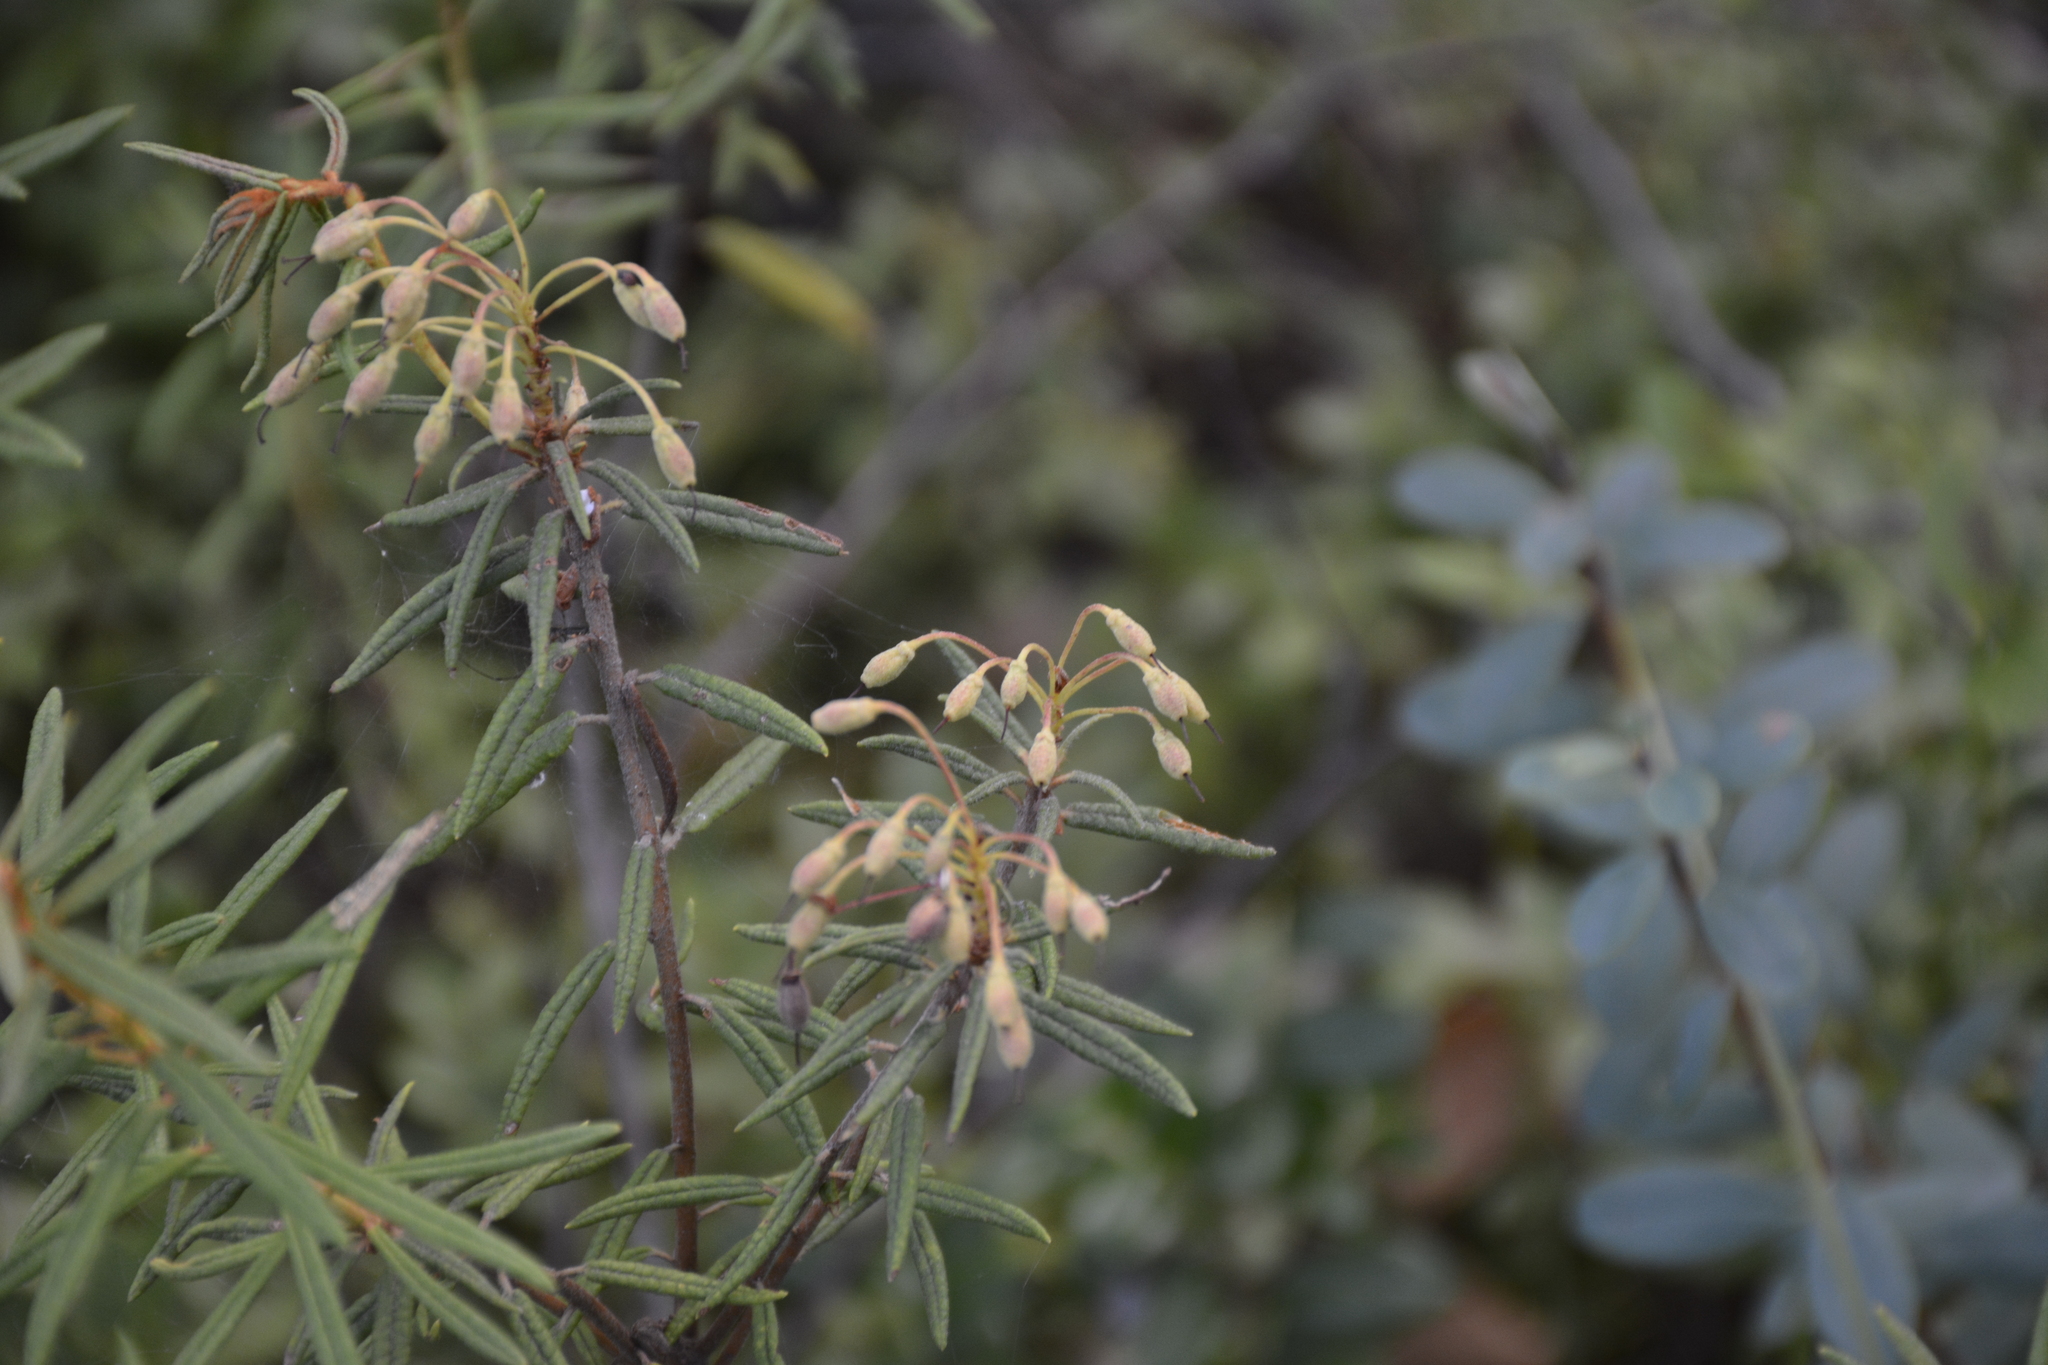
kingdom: Plantae
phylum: Tracheophyta
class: Magnoliopsida
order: Ericales
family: Ericaceae
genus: Rhododendron
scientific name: Rhododendron tomentosum
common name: Marsh labrador tea
